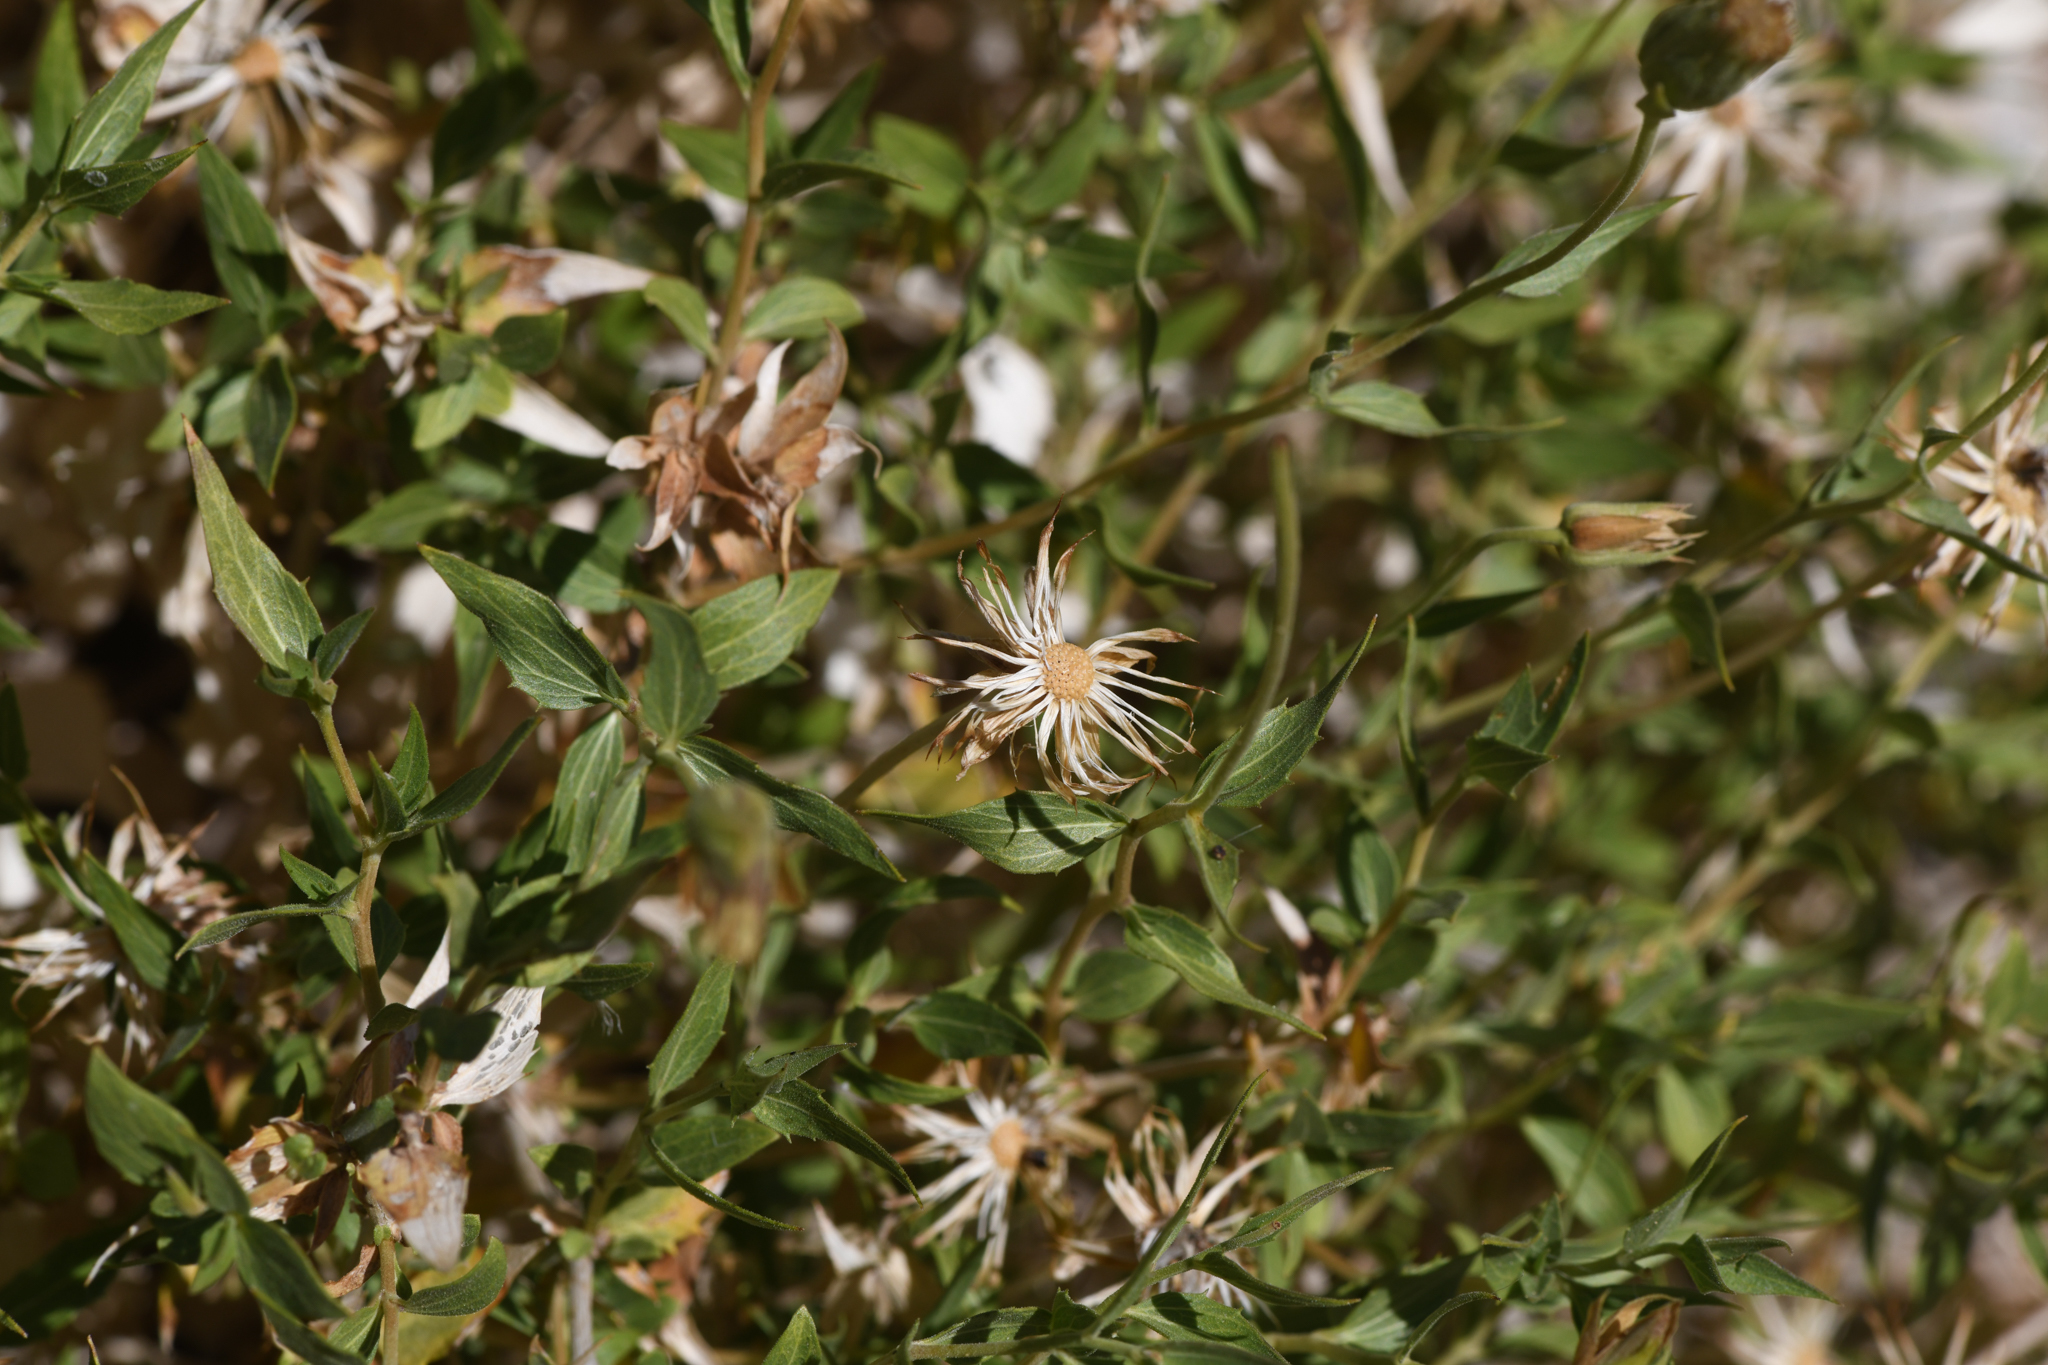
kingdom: Plantae
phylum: Tracheophyta
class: Magnoliopsida
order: Asterales
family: Asteraceae
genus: Brickellia
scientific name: Brickellia atractyloides
